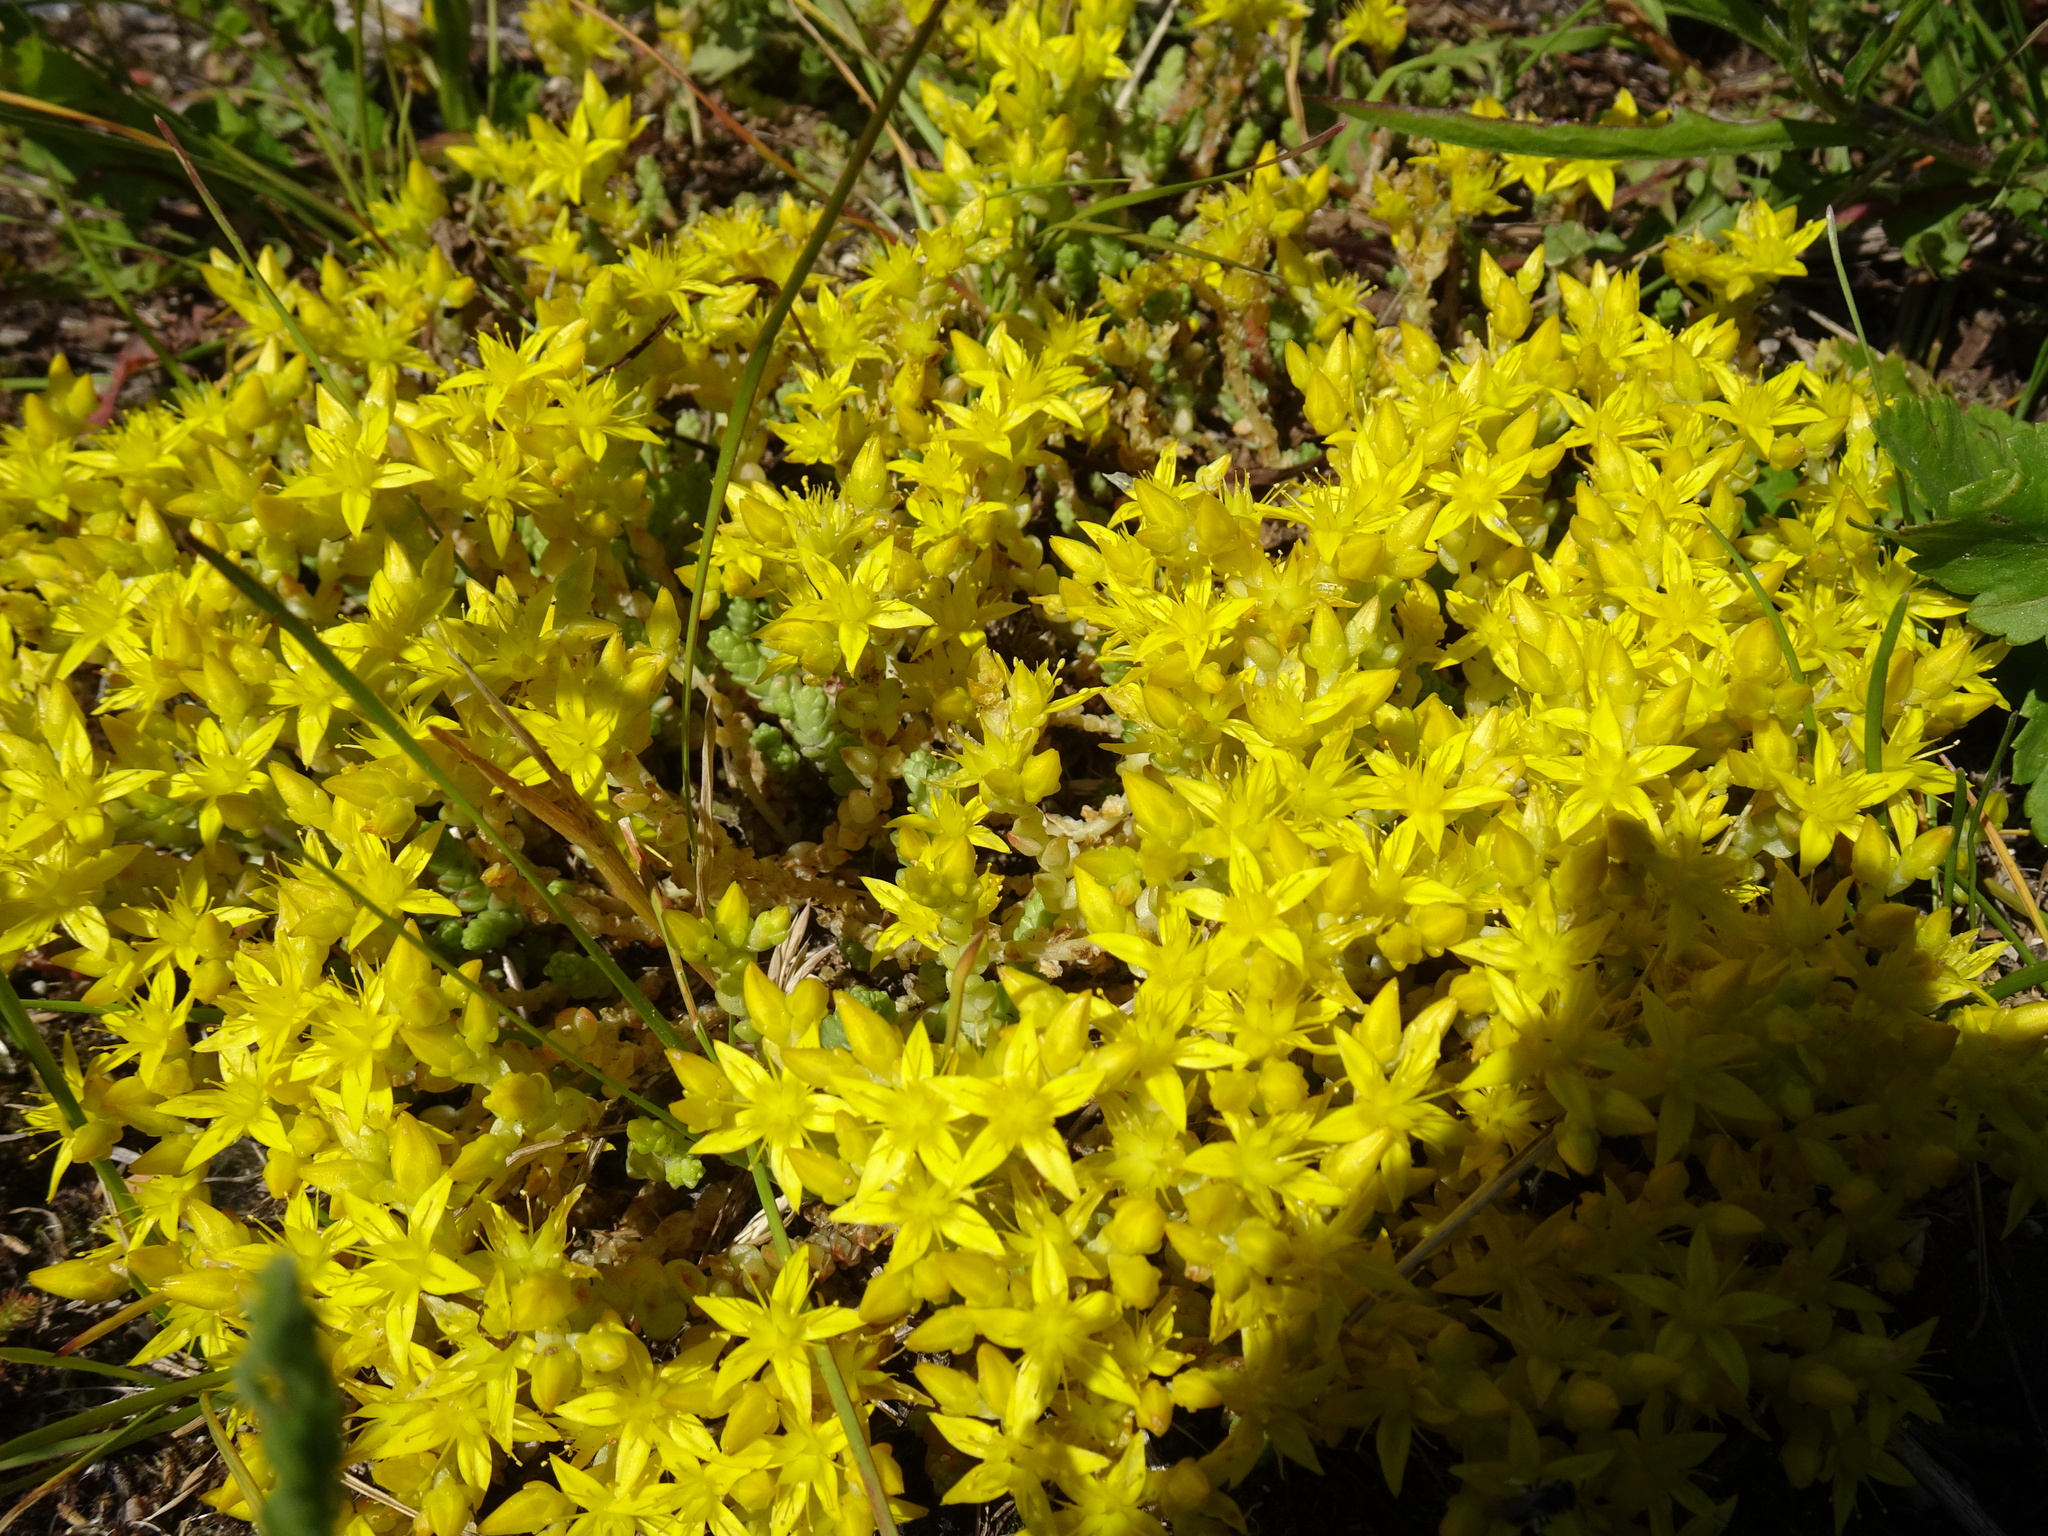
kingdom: Plantae
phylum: Tracheophyta
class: Magnoliopsida
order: Saxifragales
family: Crassulaceae
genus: Sedum
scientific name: Sedum acre
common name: Biting stonecrop
